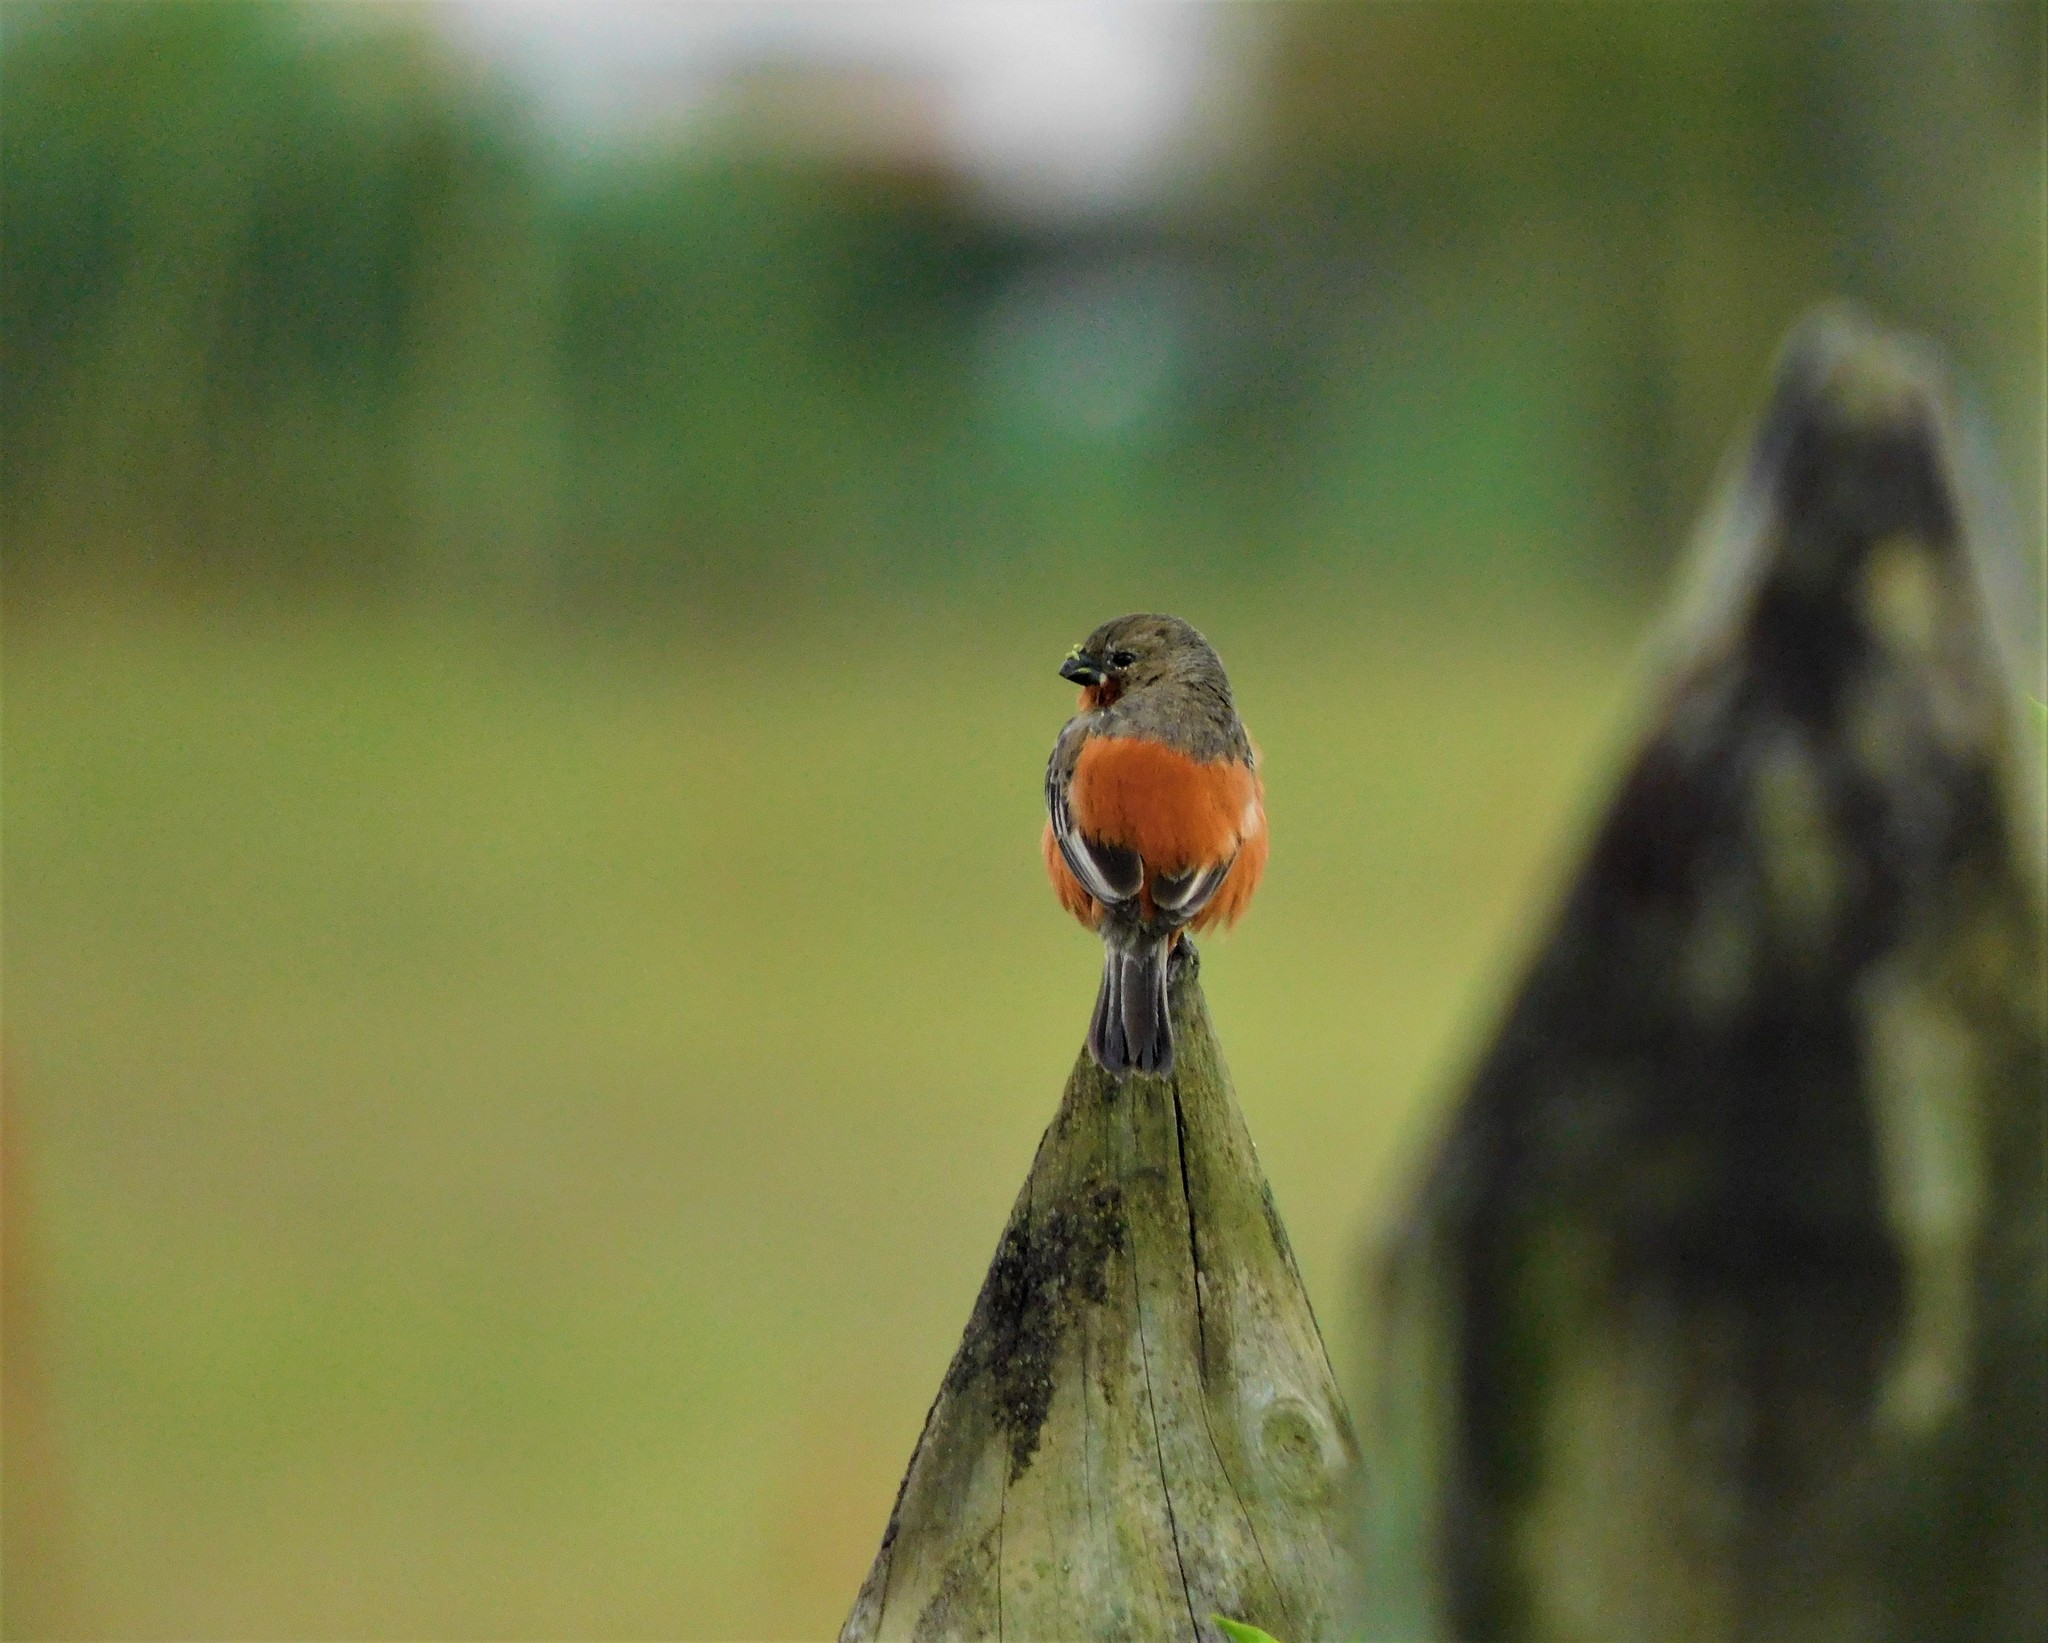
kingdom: Animalia
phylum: Chordata
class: Aves
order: Passeriformes
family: Thraupidae
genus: Sporophila
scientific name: Sporophila minuta
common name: Ruddy-breasted seedeater
